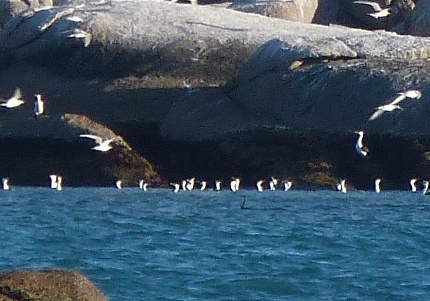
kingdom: Animalia
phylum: Chordata
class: Aves
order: Suliformes
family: Anhingidae
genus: Anhinga
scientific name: Anhinga novaehollandiae
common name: Australasian darter
